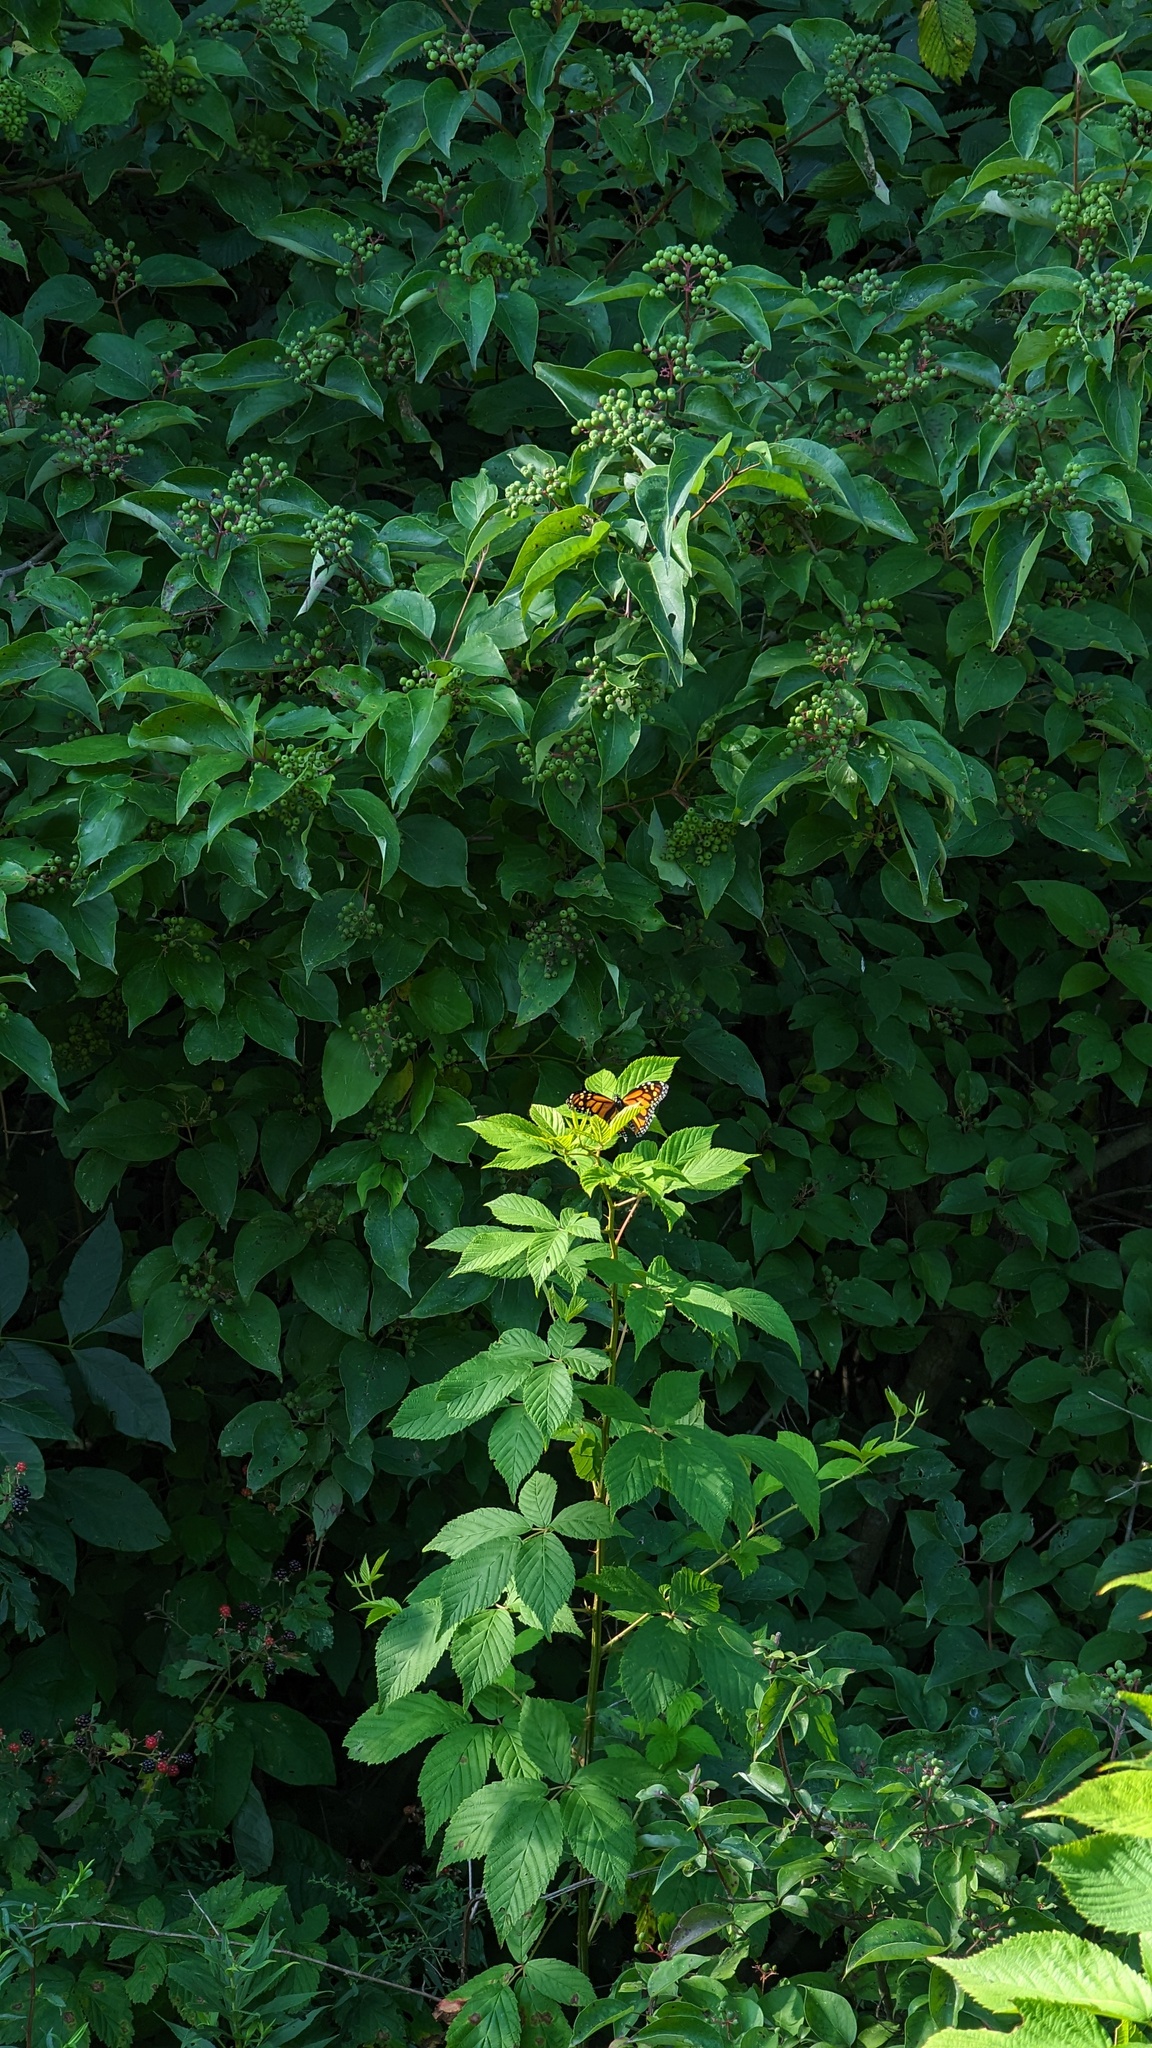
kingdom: Animalia
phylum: Arthropoda
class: Insecta
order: Lepidoptera
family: Nymphalidae
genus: Danaus
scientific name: Danaus plexippus
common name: Monarch
